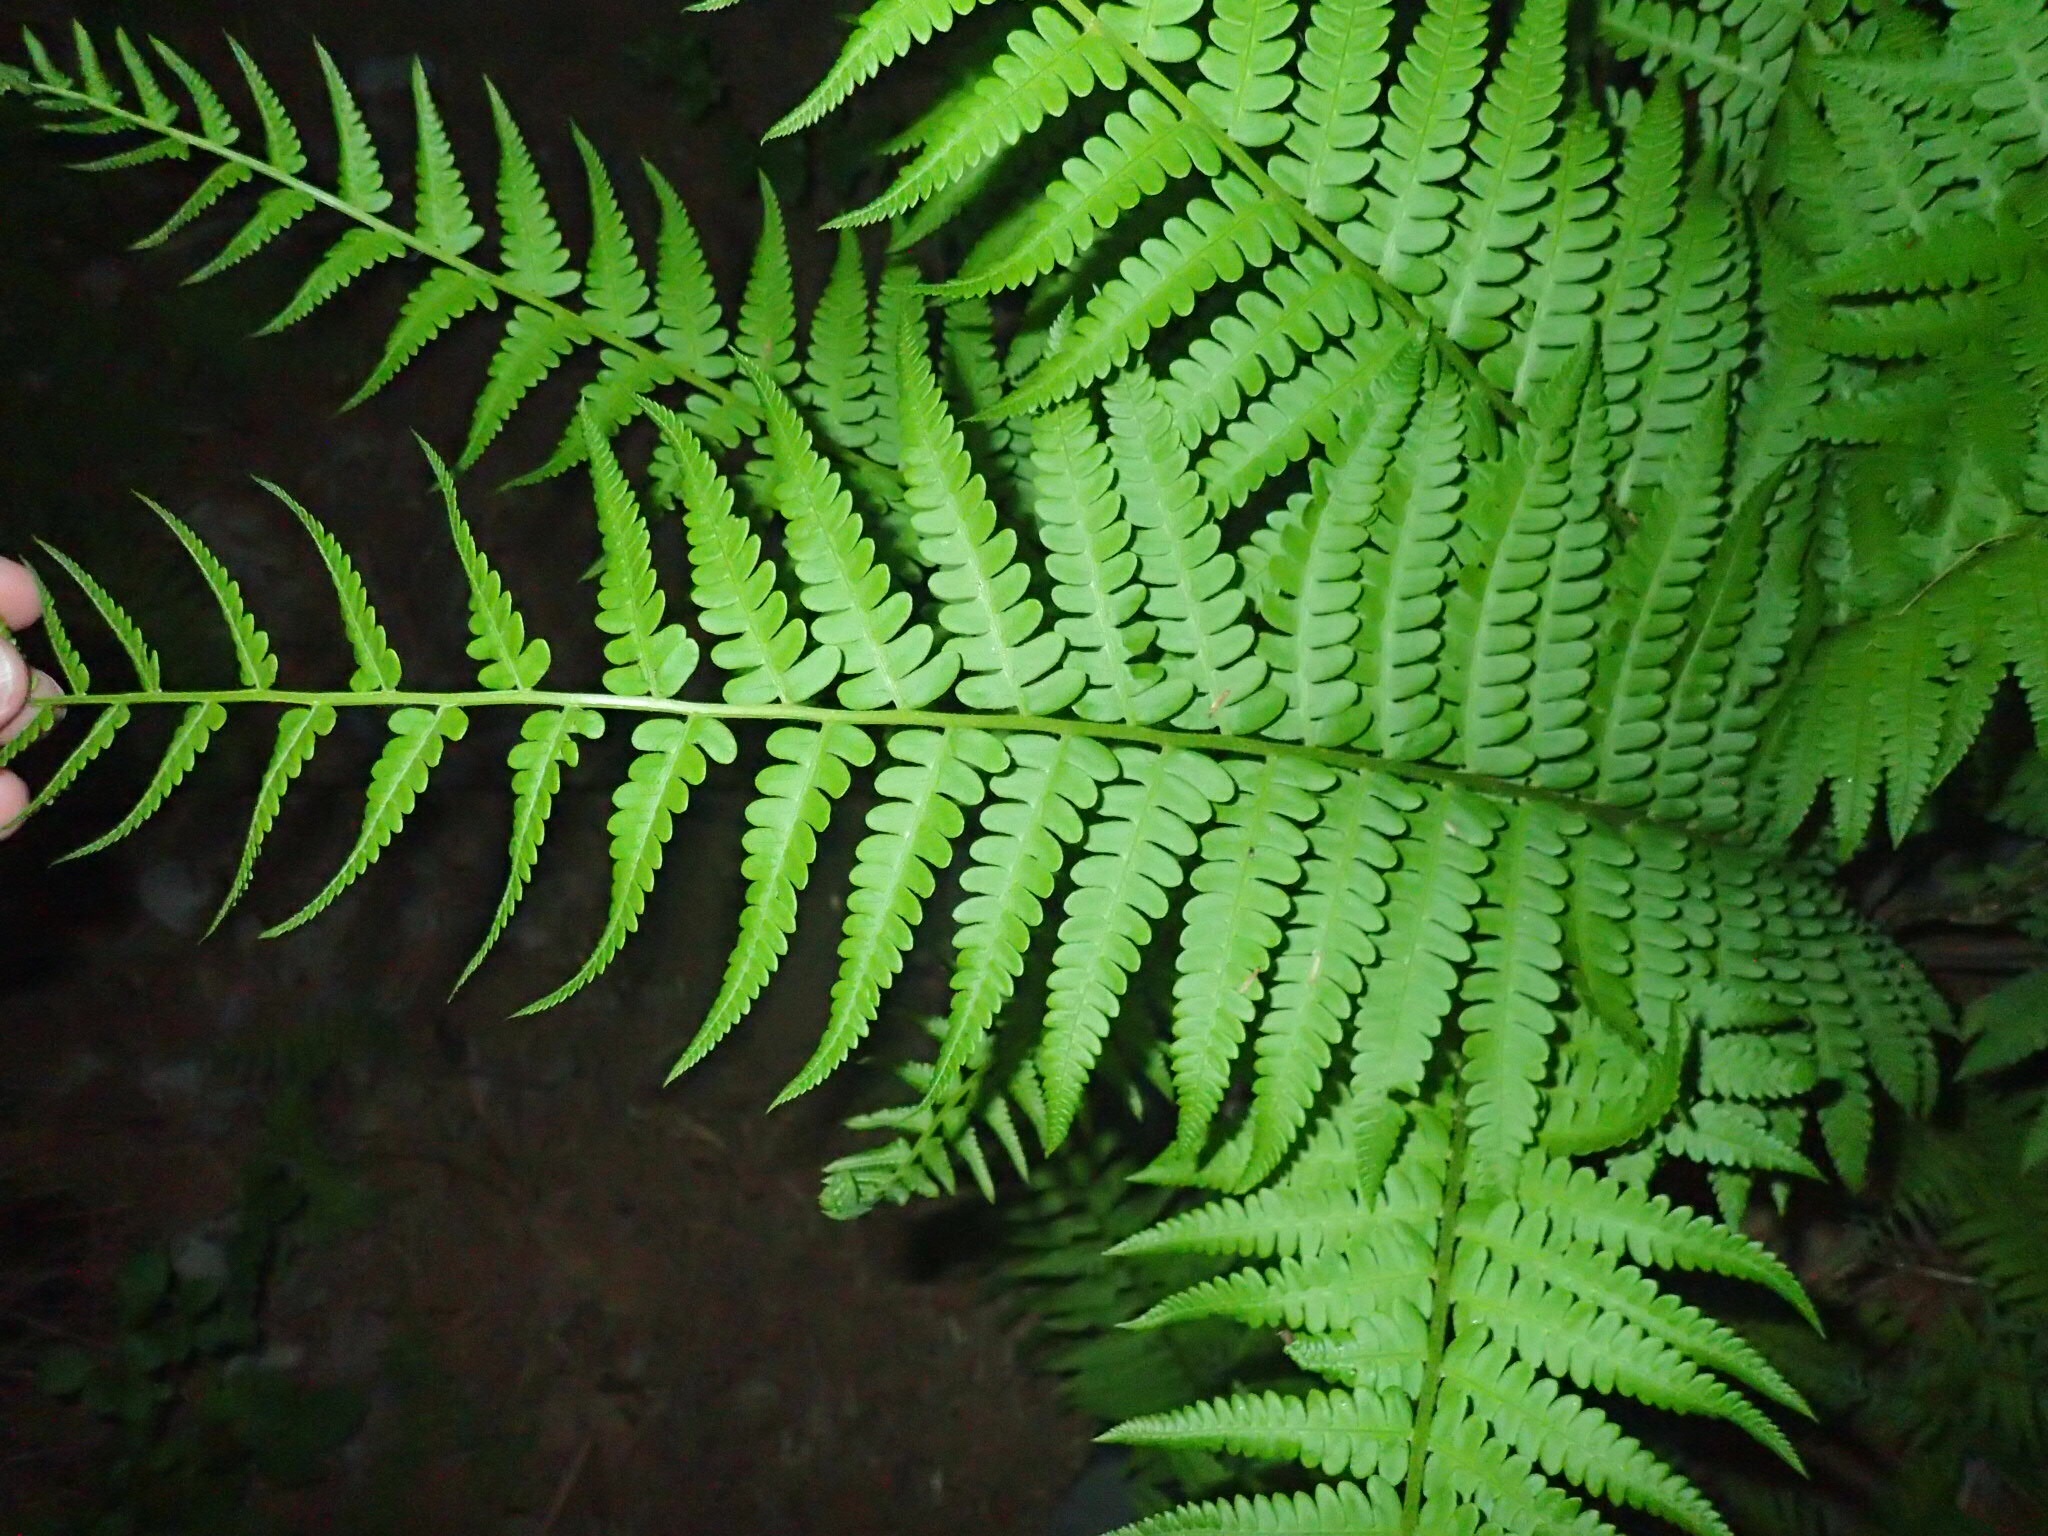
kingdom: Plantae
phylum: Tracheophyta
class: Polypodiopsida
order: Osmundales
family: Osmundaceae
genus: Osmundastrum
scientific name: Osmundastrum cinnamomeum
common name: Cinnamon fern
